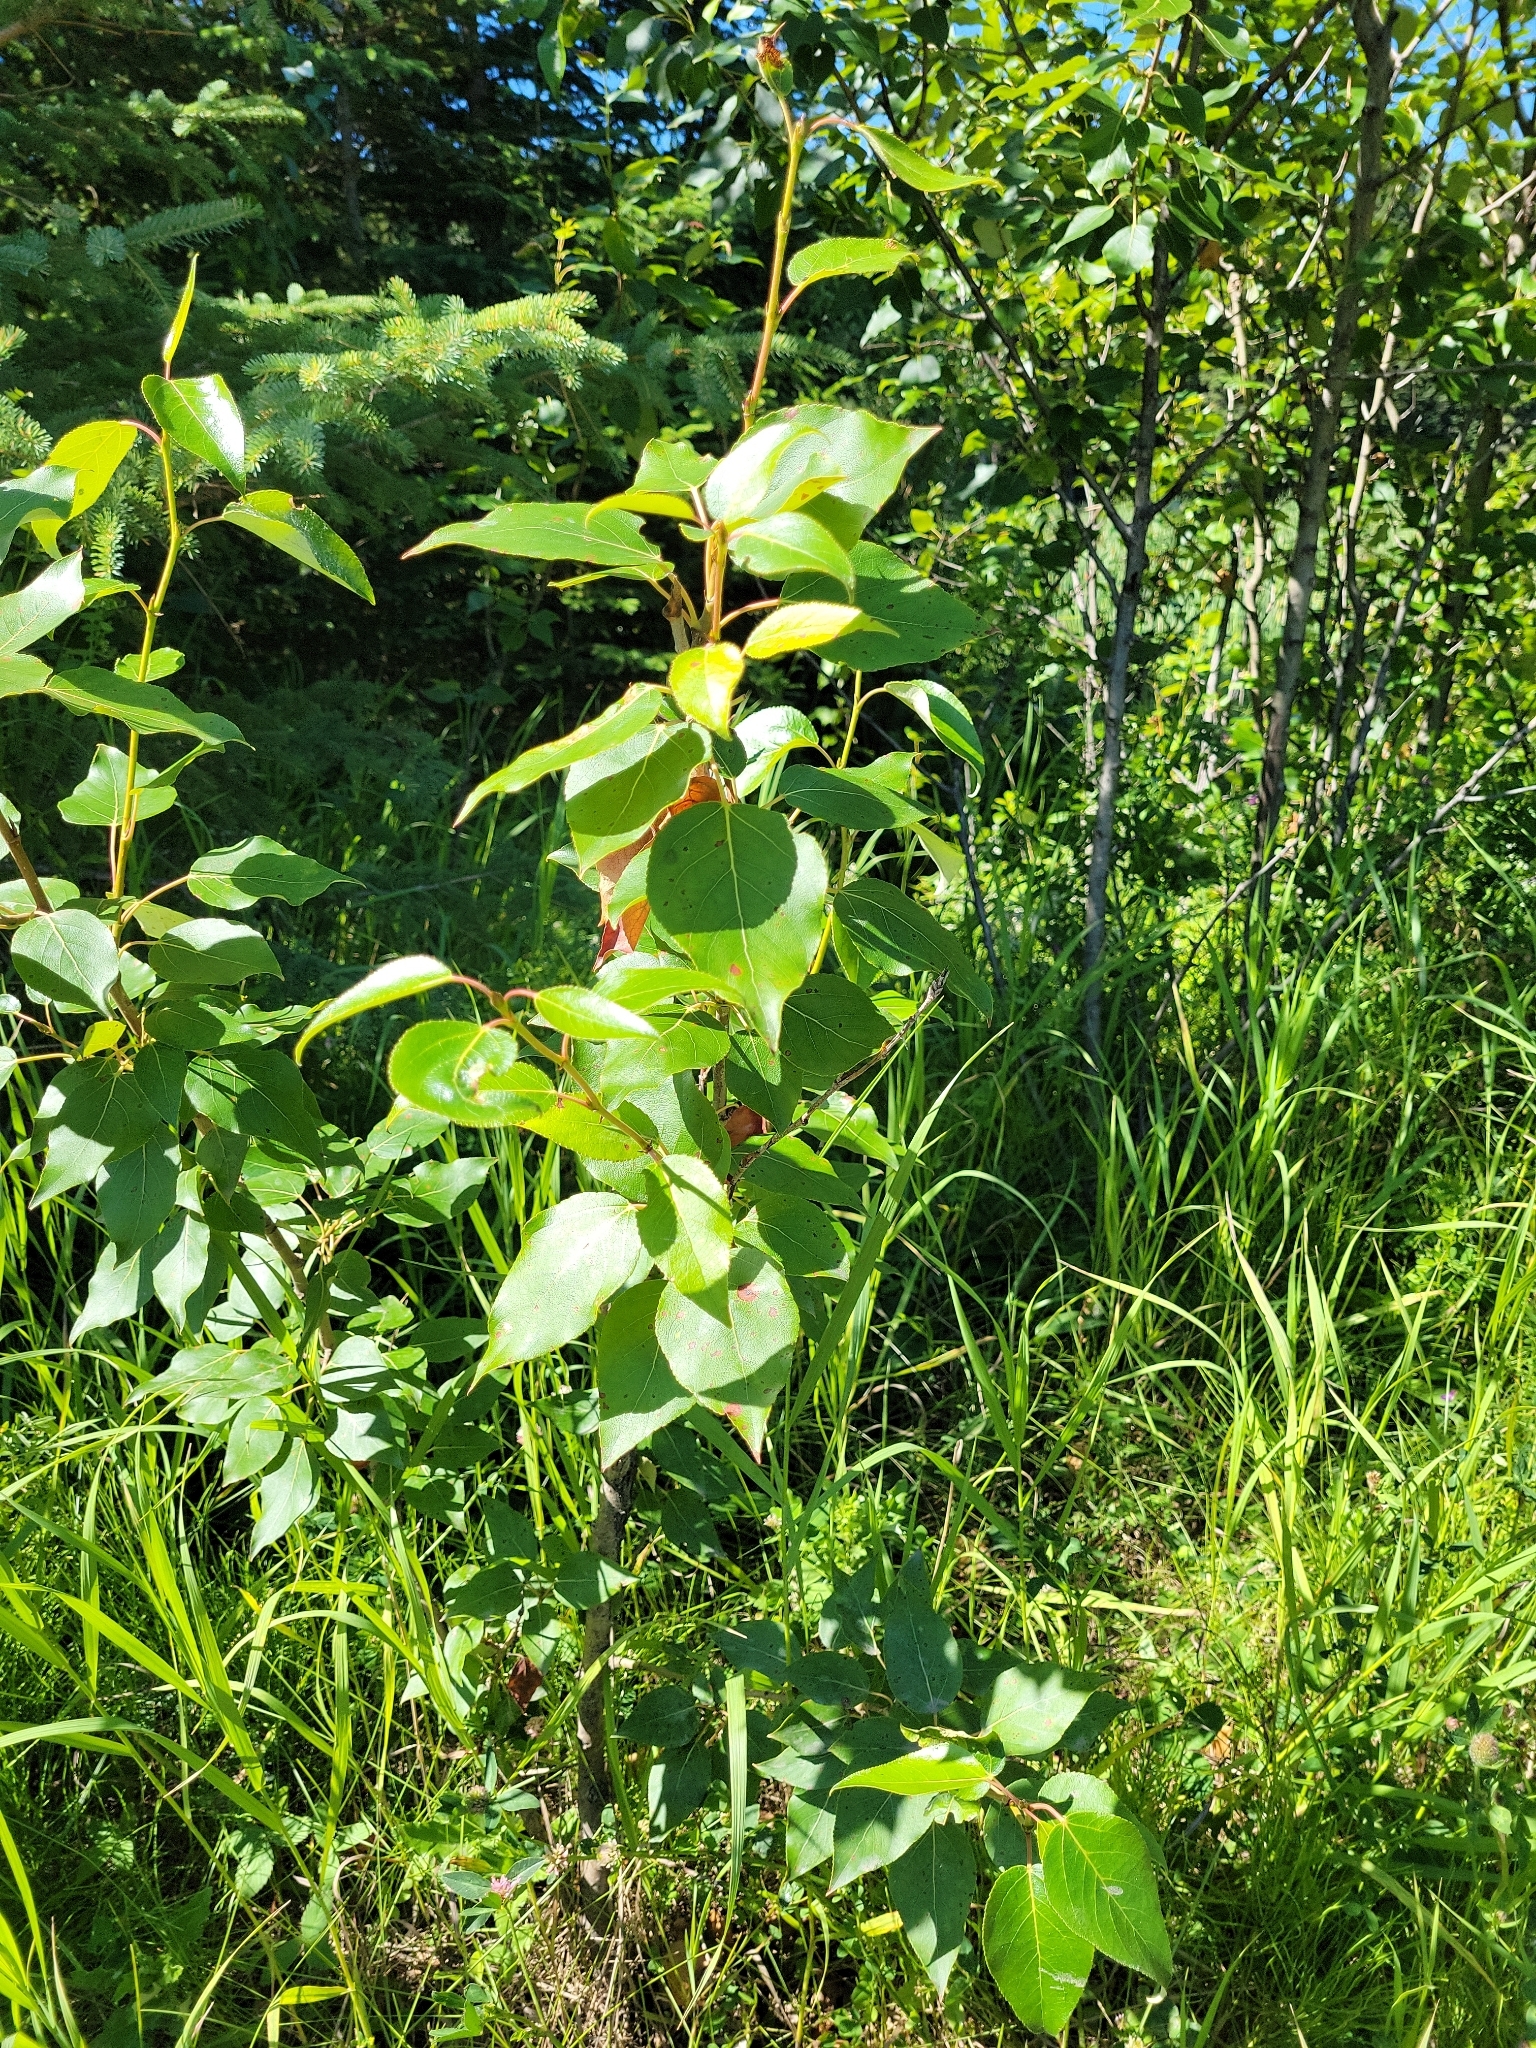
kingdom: Plantae
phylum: Tracheophyta
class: Magnoliopsida
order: Malpighiales
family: Salicaceae
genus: Populus
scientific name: Populus balsamifera
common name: Balsam poplar
